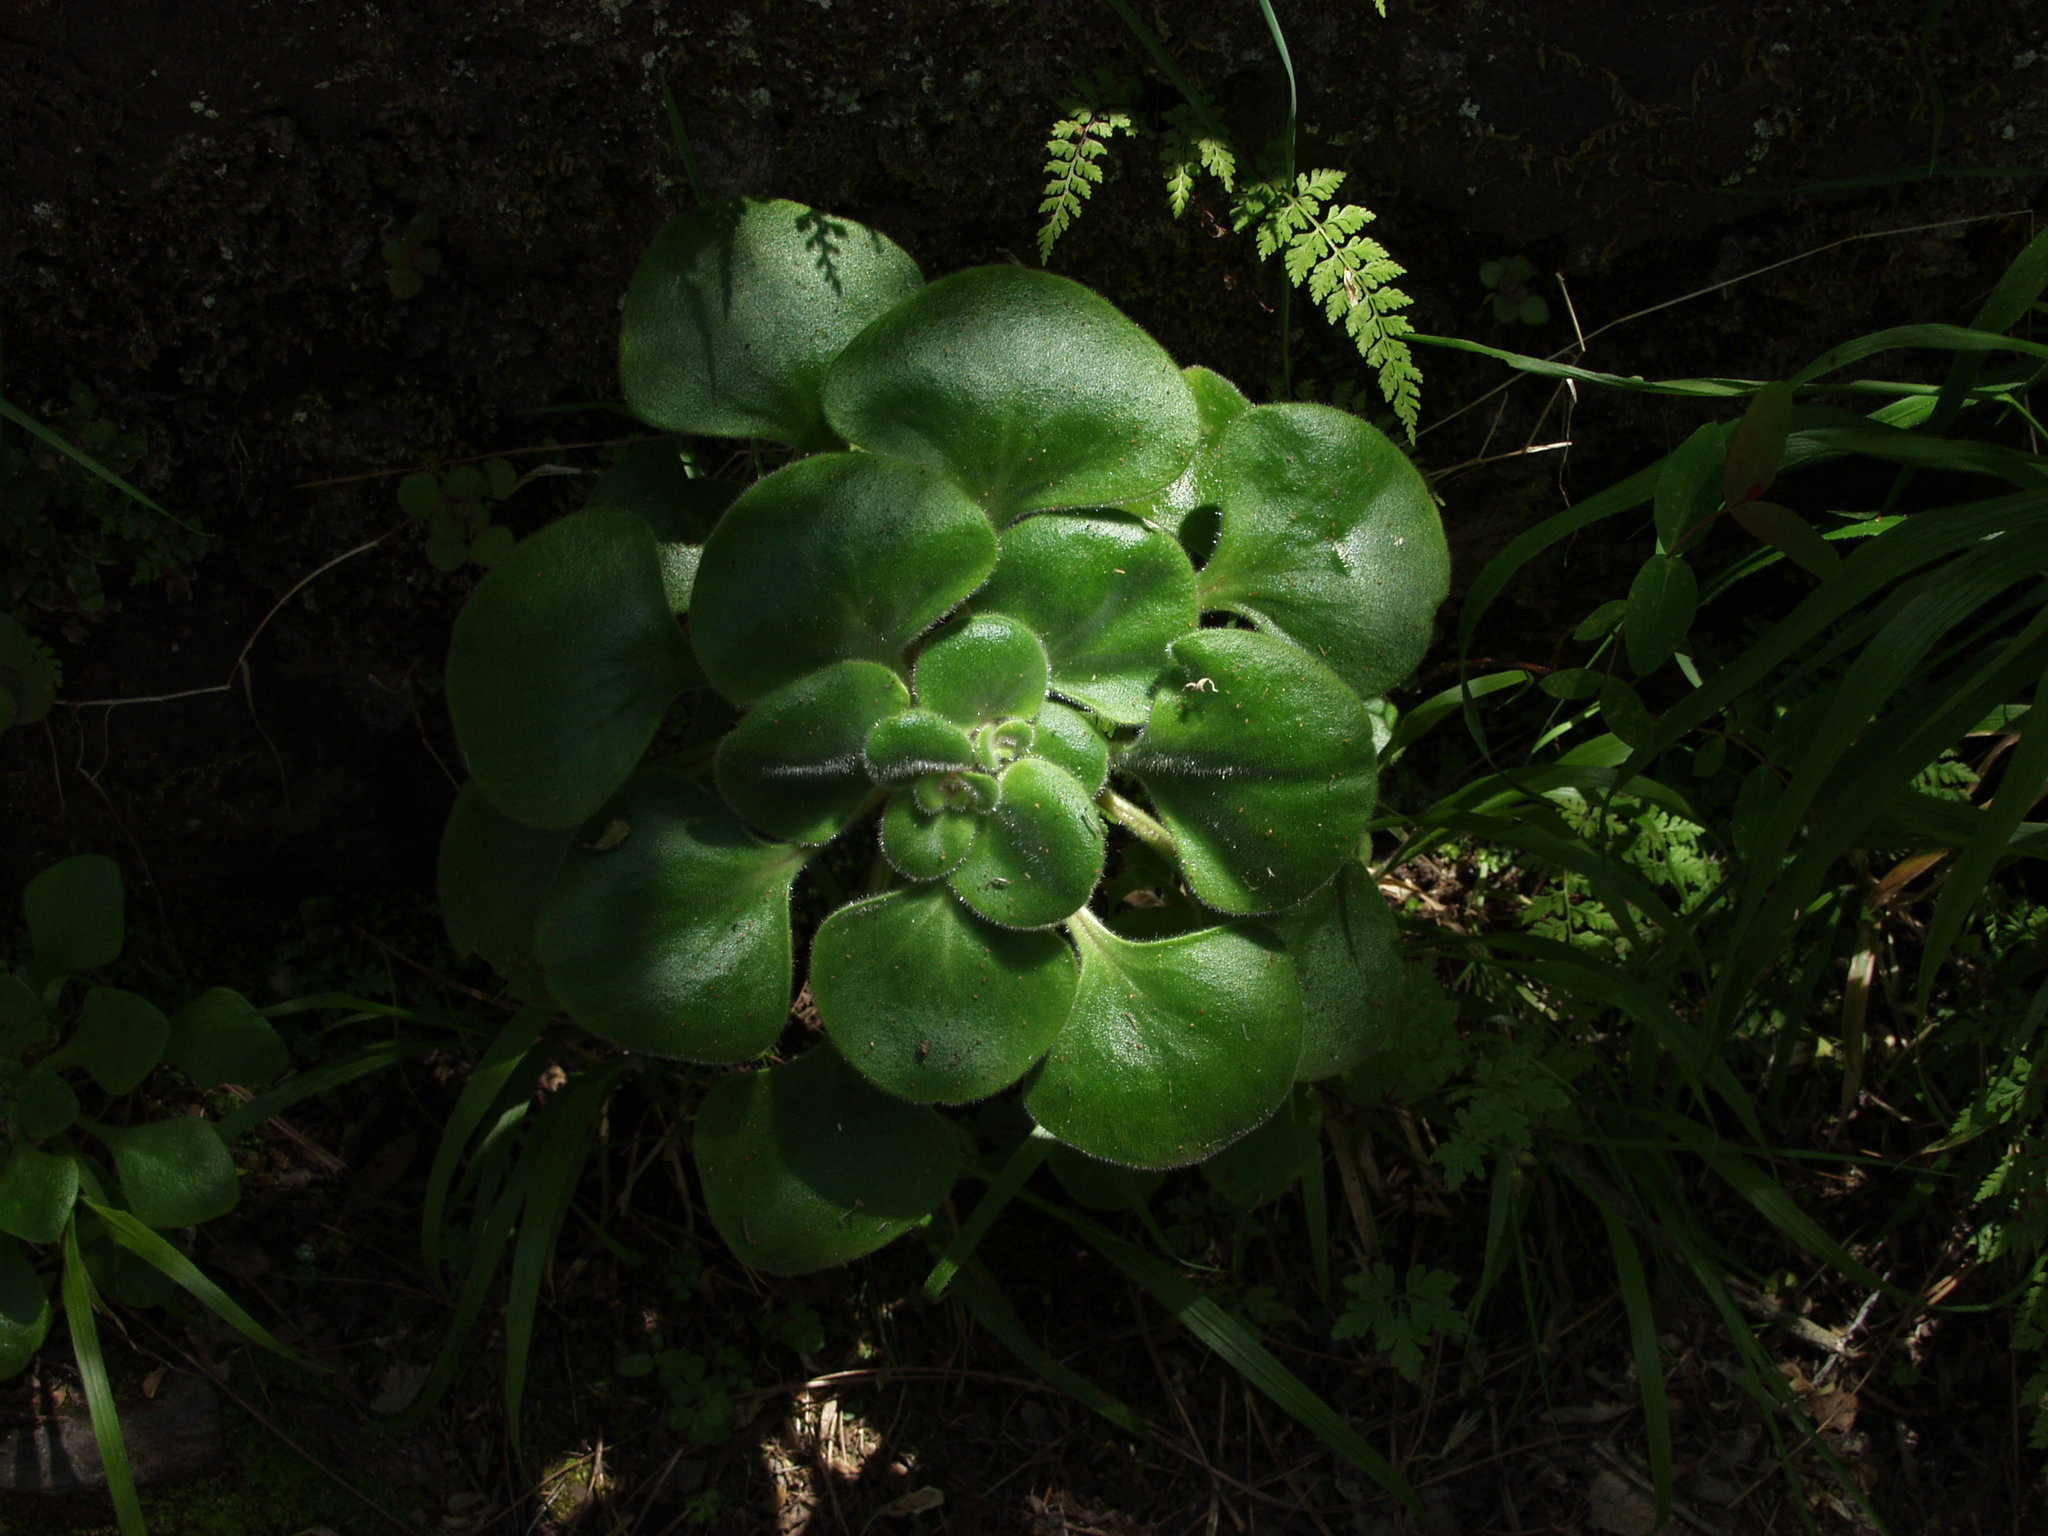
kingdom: Plantae
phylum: Tracheophyta
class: Magnoliopsida
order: Saxifragales
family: Crassulaceae
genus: Aichryson
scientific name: Aichryson laxum
